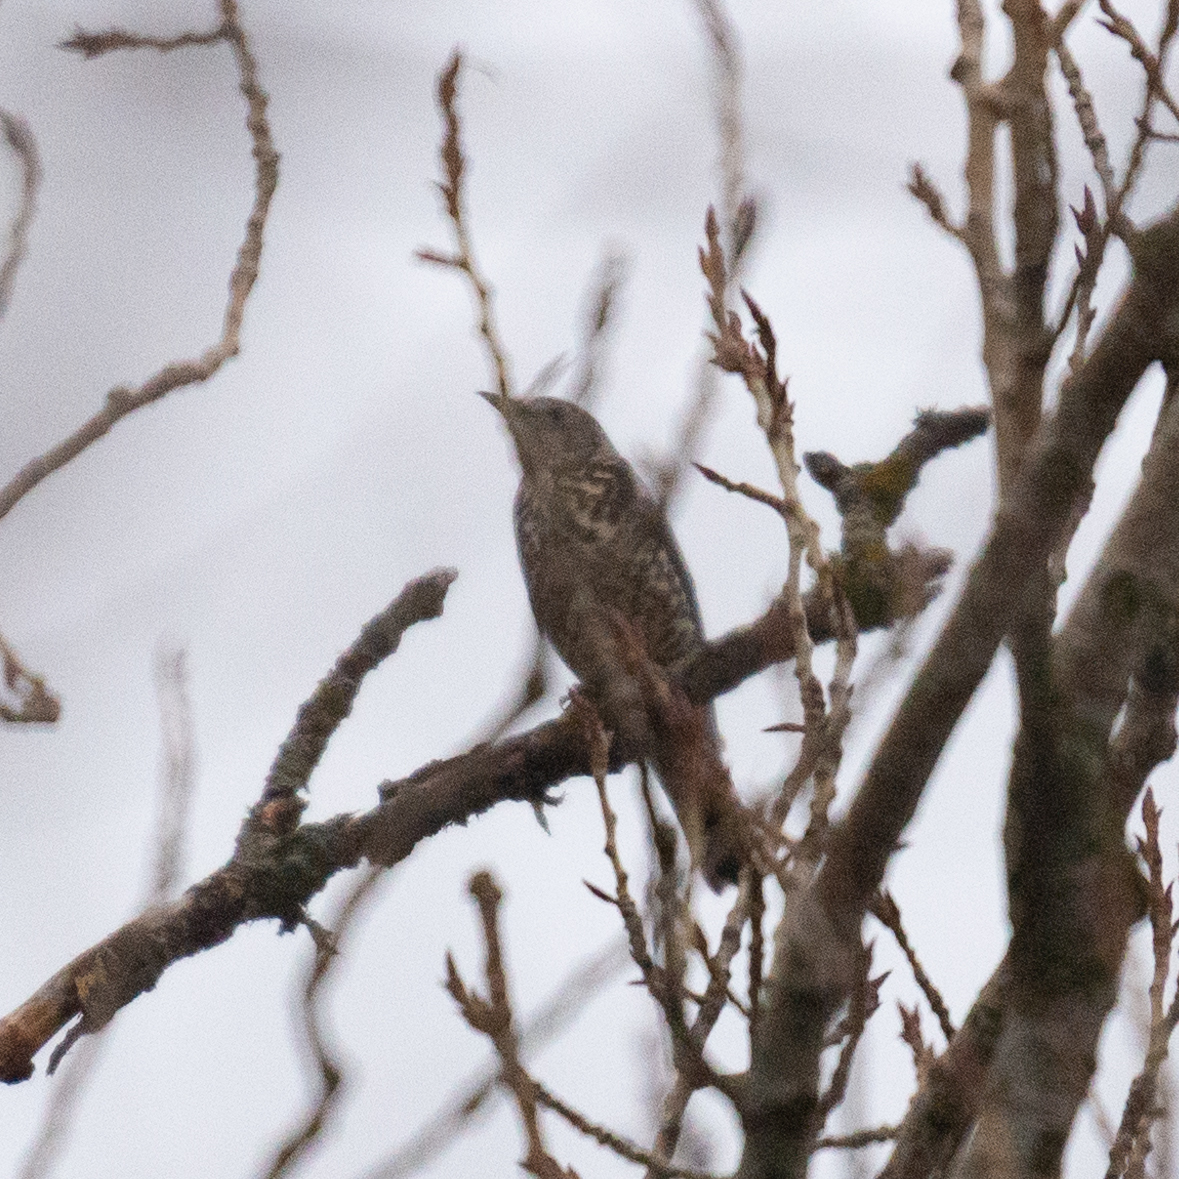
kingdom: Animalia
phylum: Chordata
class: Aves
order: Passeriformes
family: Turdidae
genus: Turdus
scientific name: Turdus viscivorus
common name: Mistle thrush
